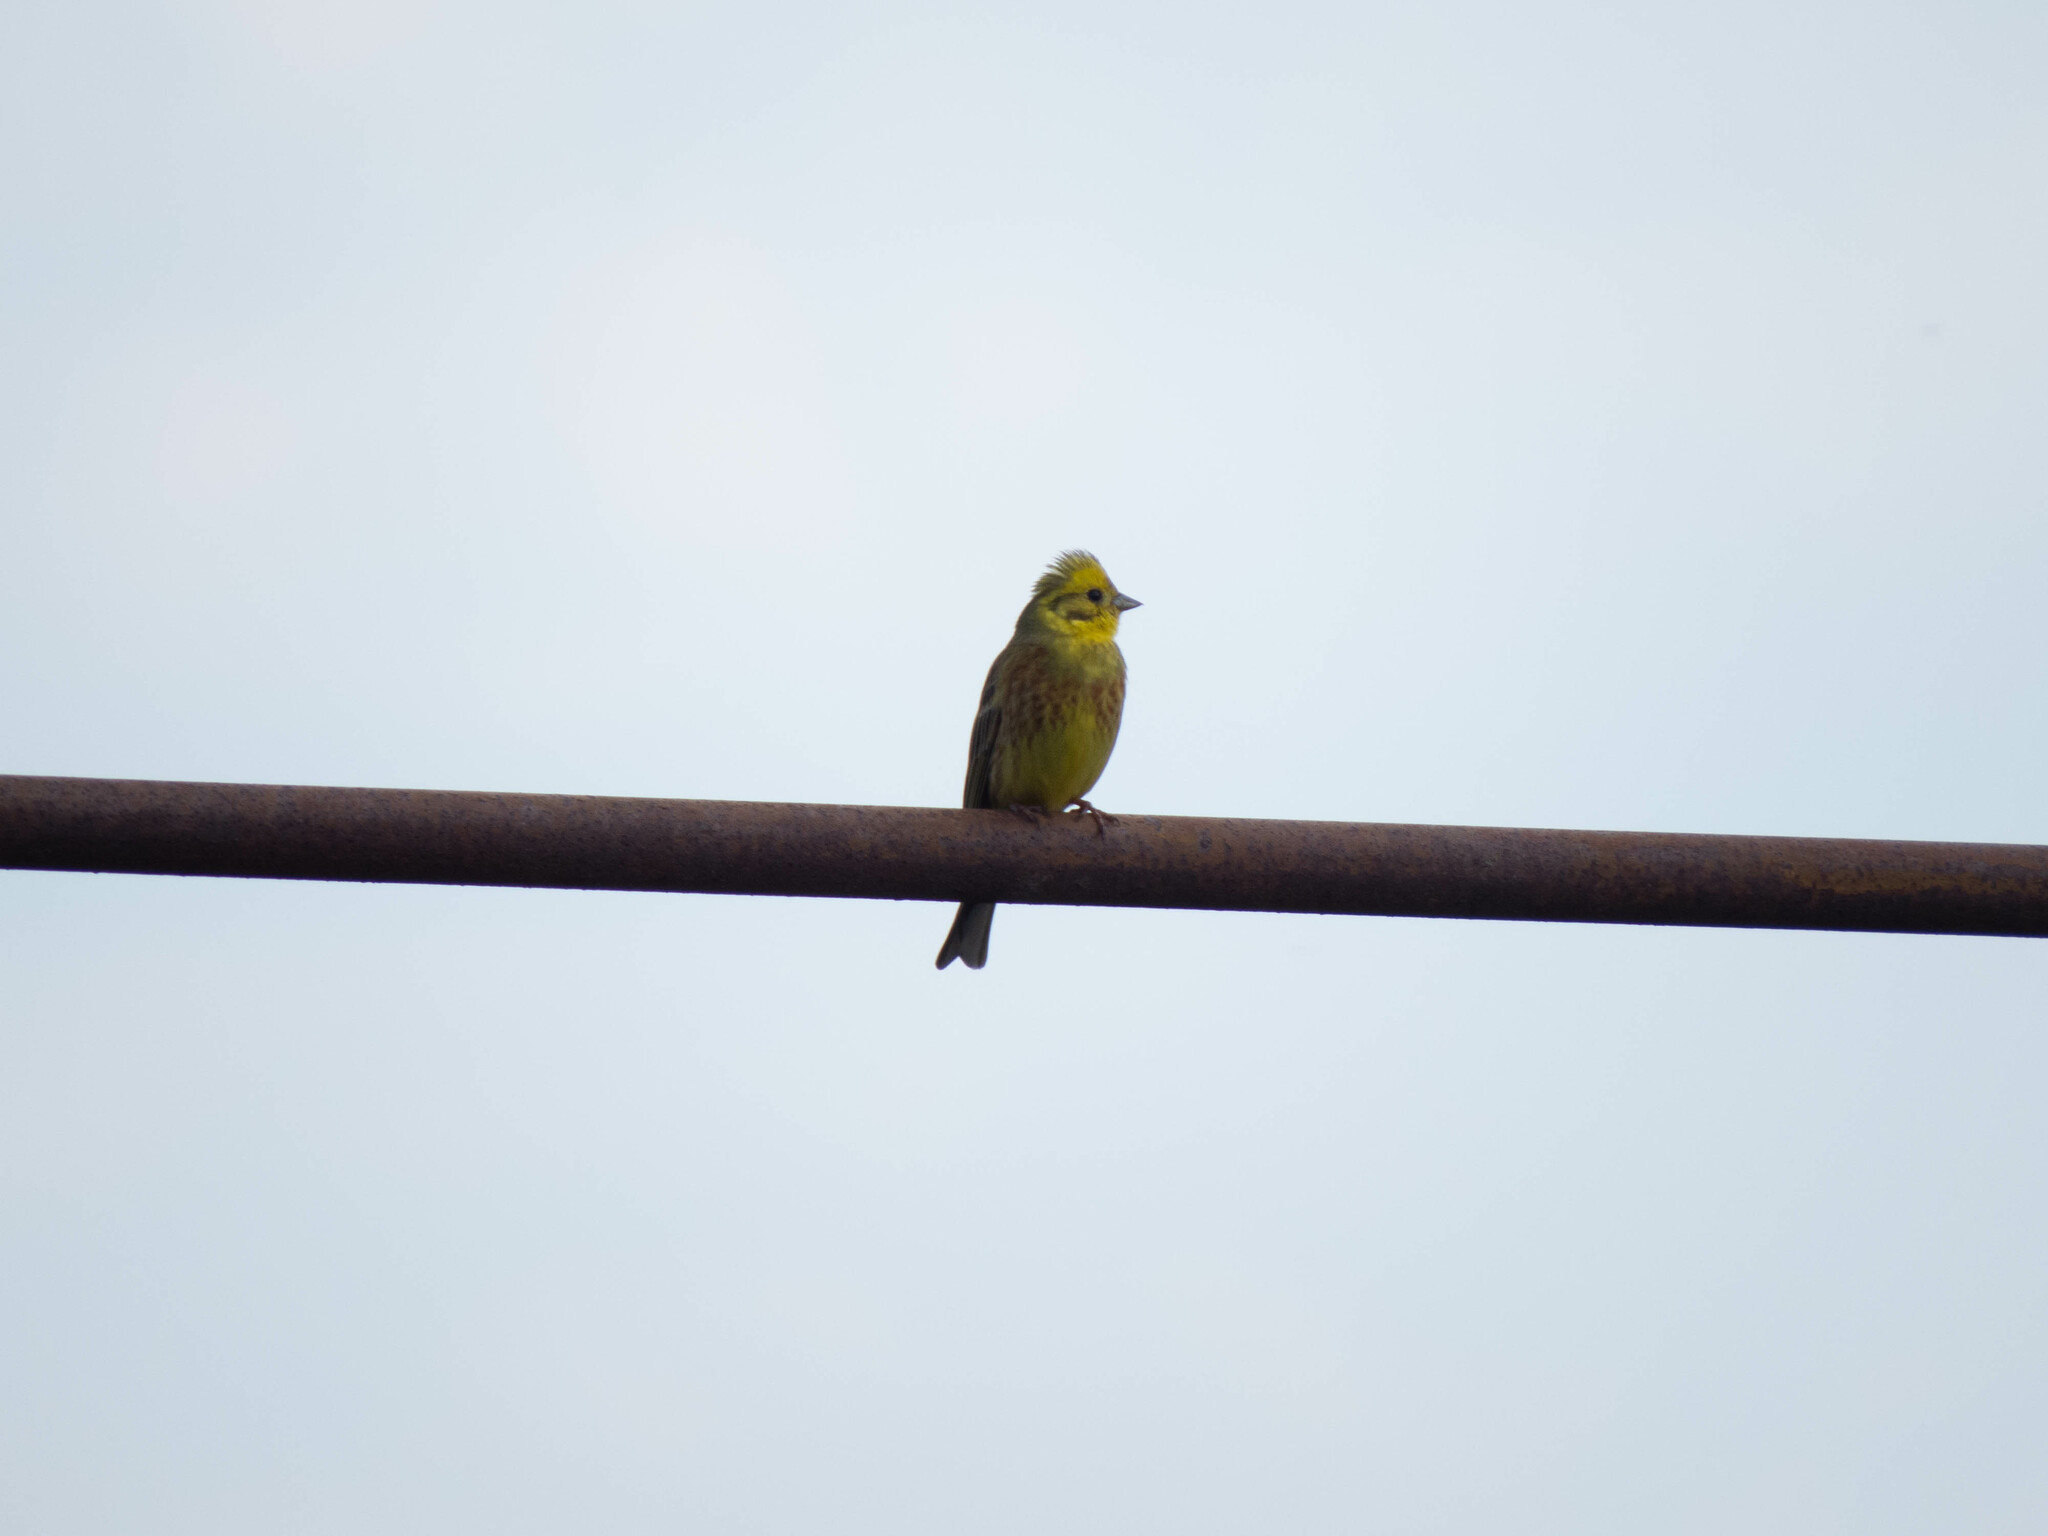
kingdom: Animalia
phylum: Chordata
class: Aves
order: Passeriformes
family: Emberizidae
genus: Emberiza
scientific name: Emberiza citrinella
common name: Yellowhammer
